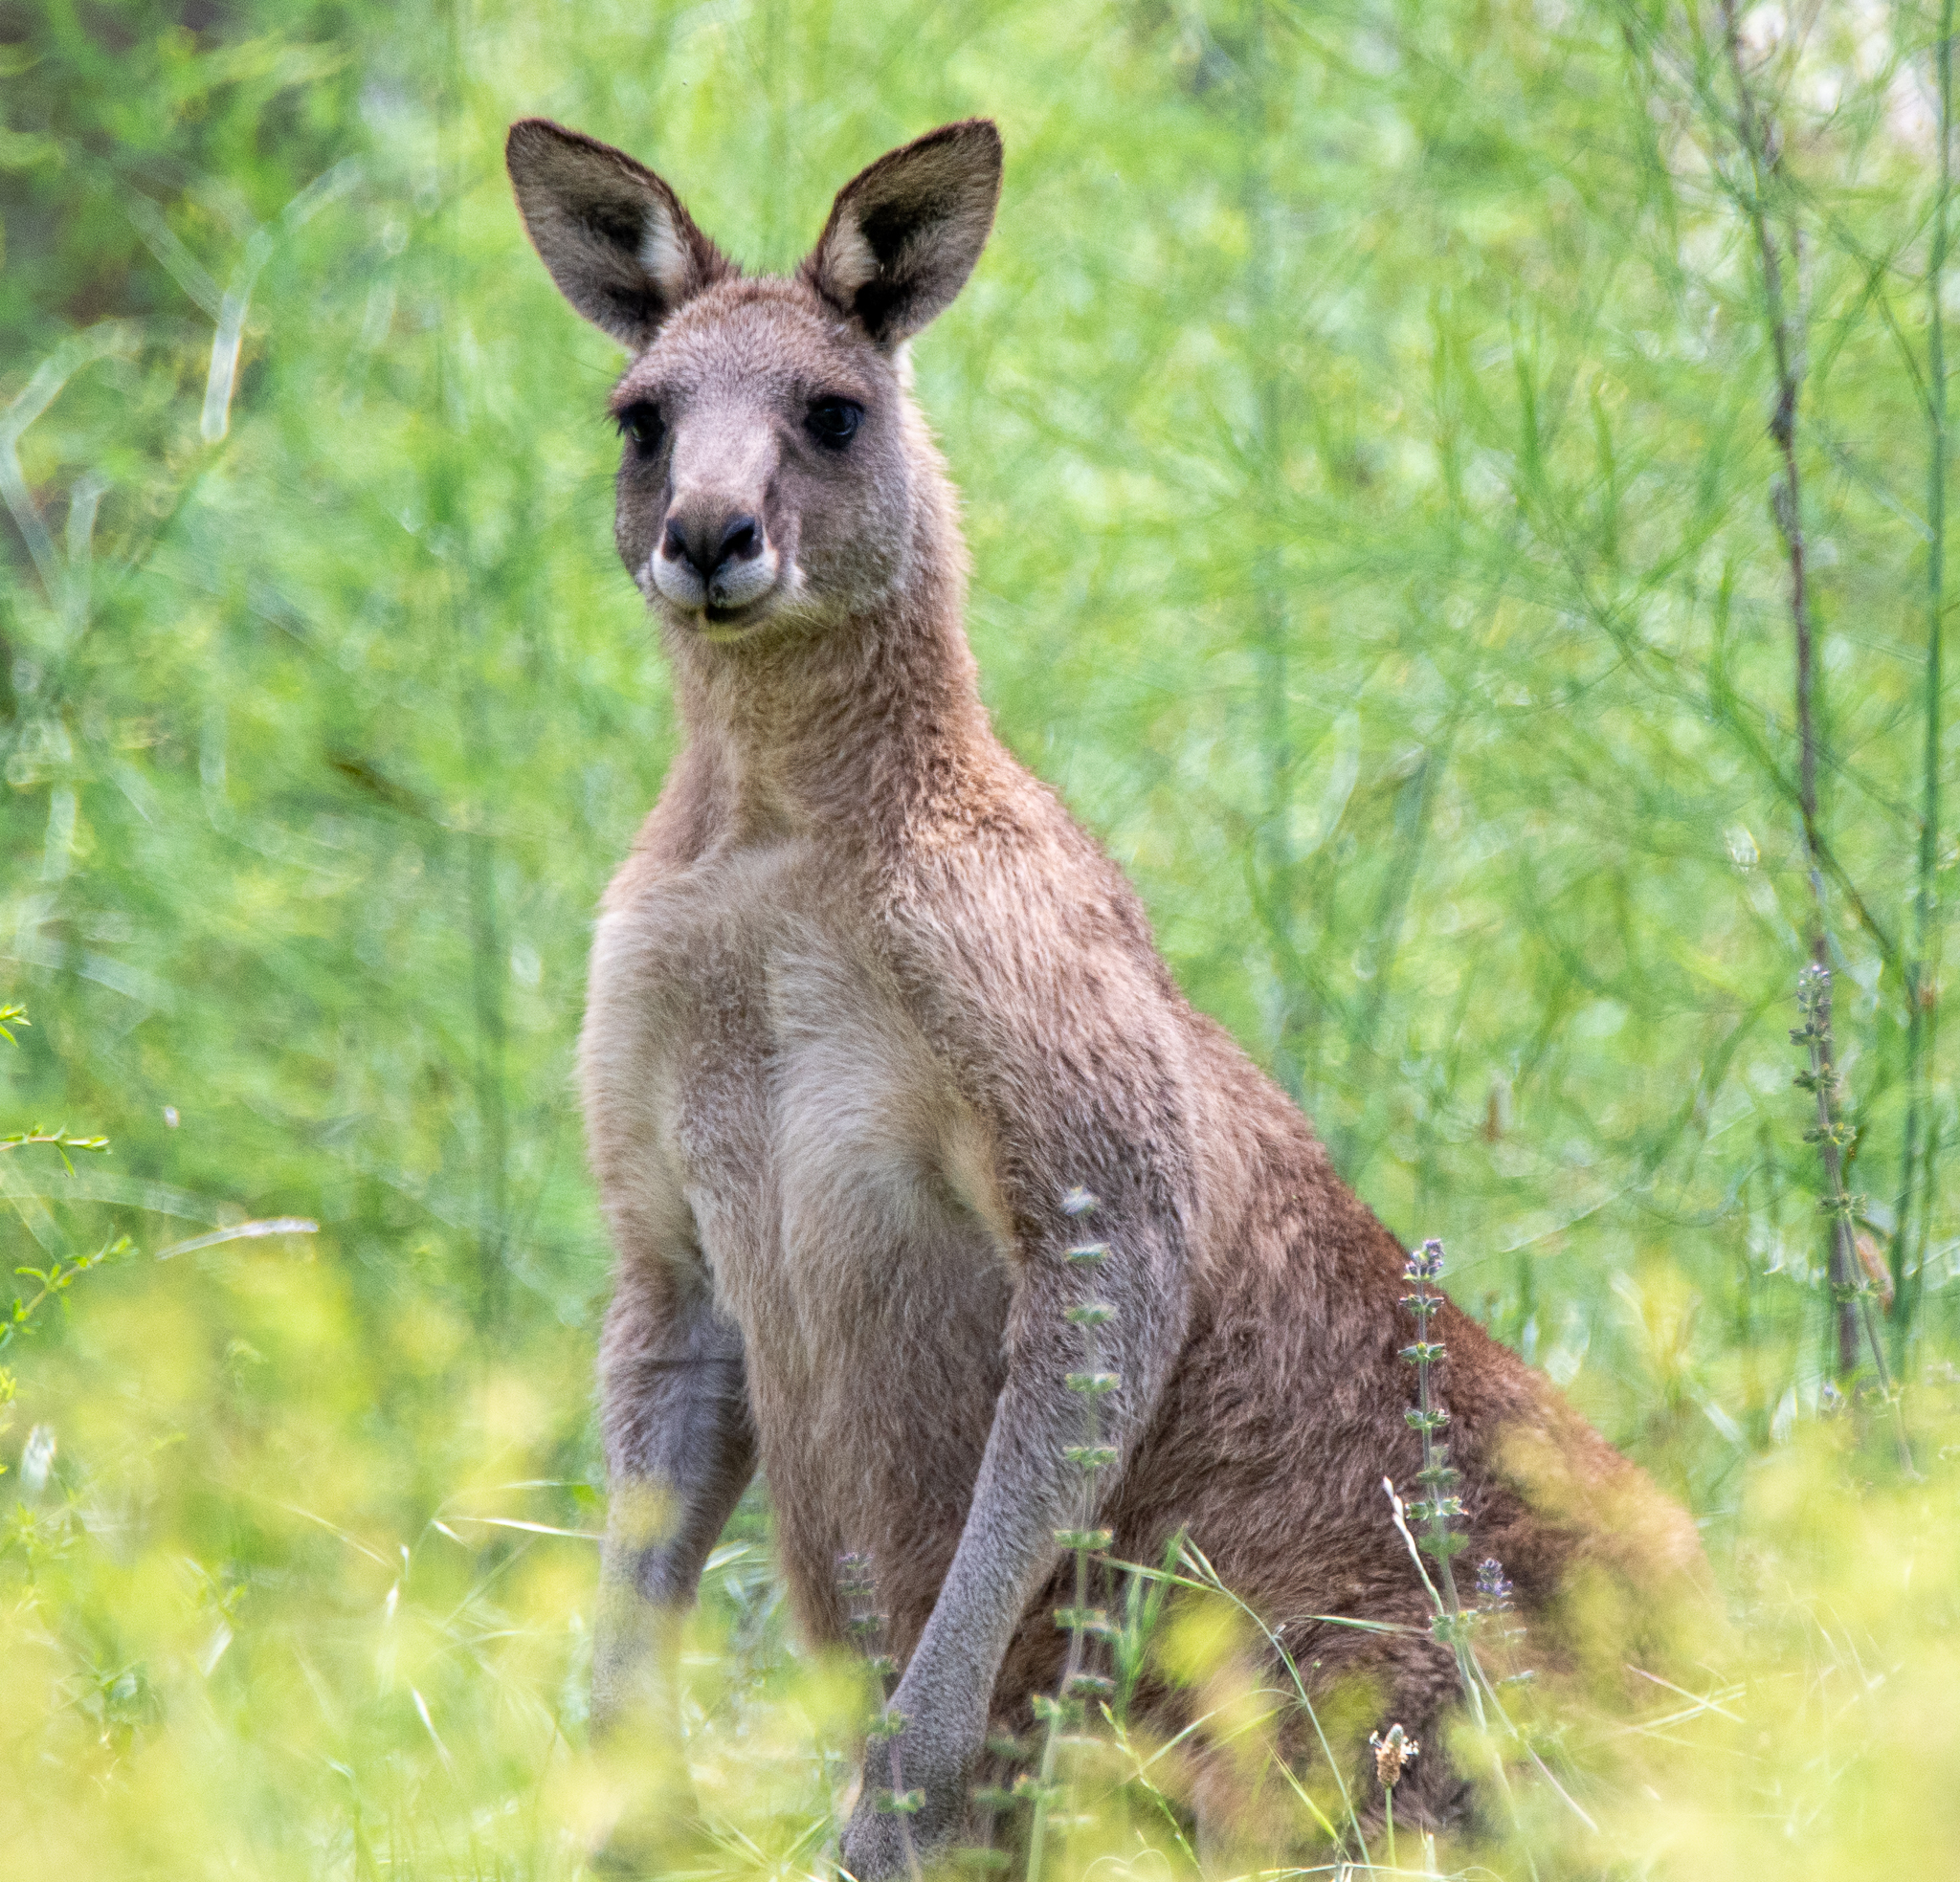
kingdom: Animalia
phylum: Chordata
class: Mammalia
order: Diprotodontia
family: Macropodidae
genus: Macropus
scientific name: Macropus giganteus
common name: Eastern grey kangaroo
